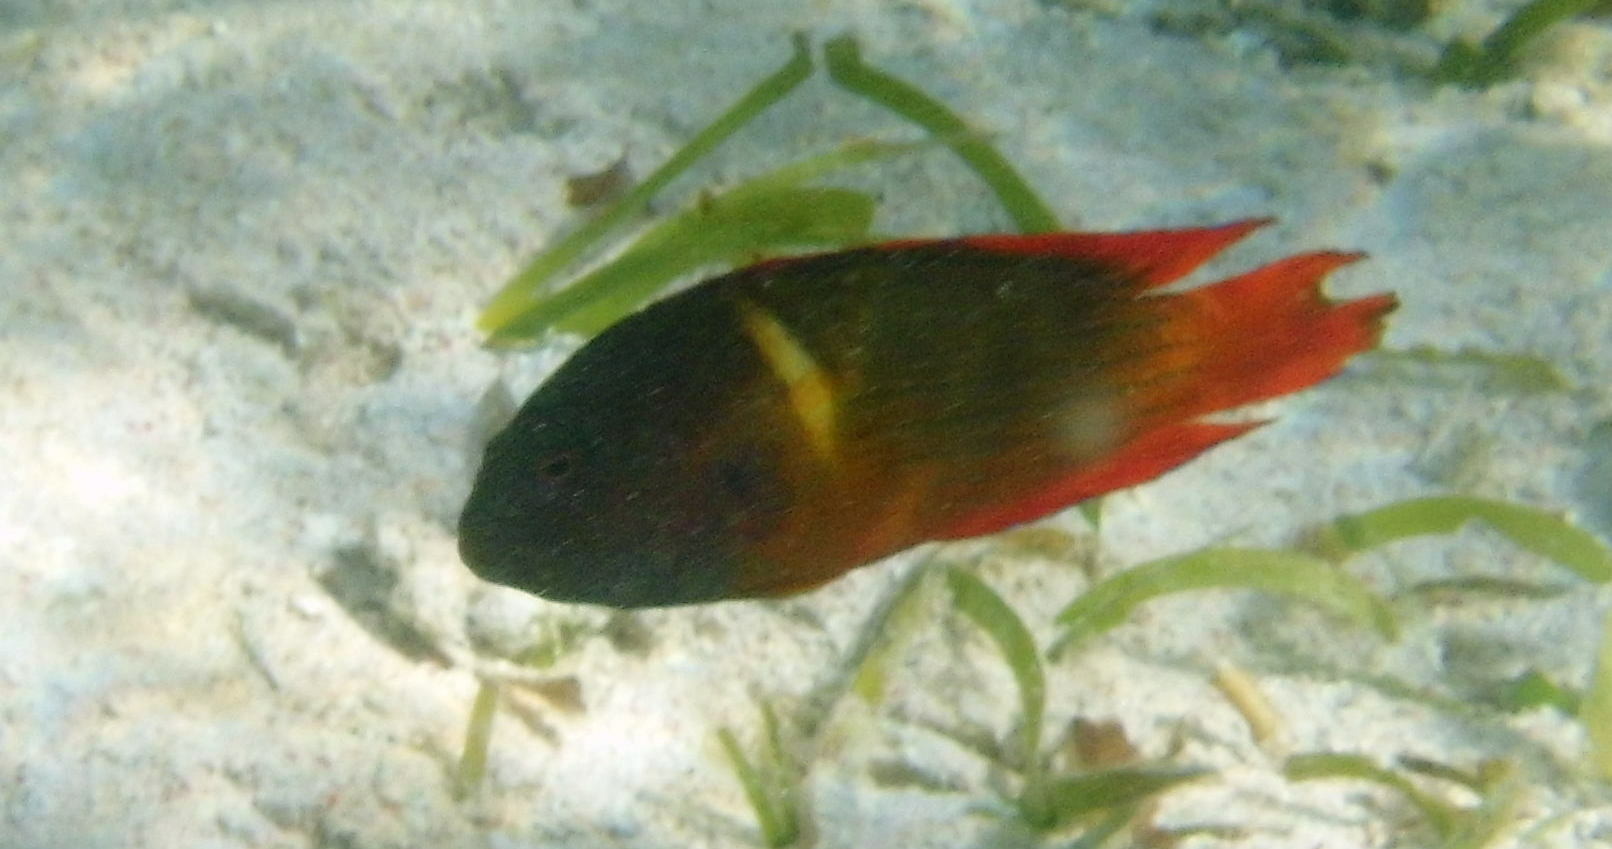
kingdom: Animalia
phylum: Chordata
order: Perciformes
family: Pseudochromidae
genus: Labracinus
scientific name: Labracinus cyclophthalmus
